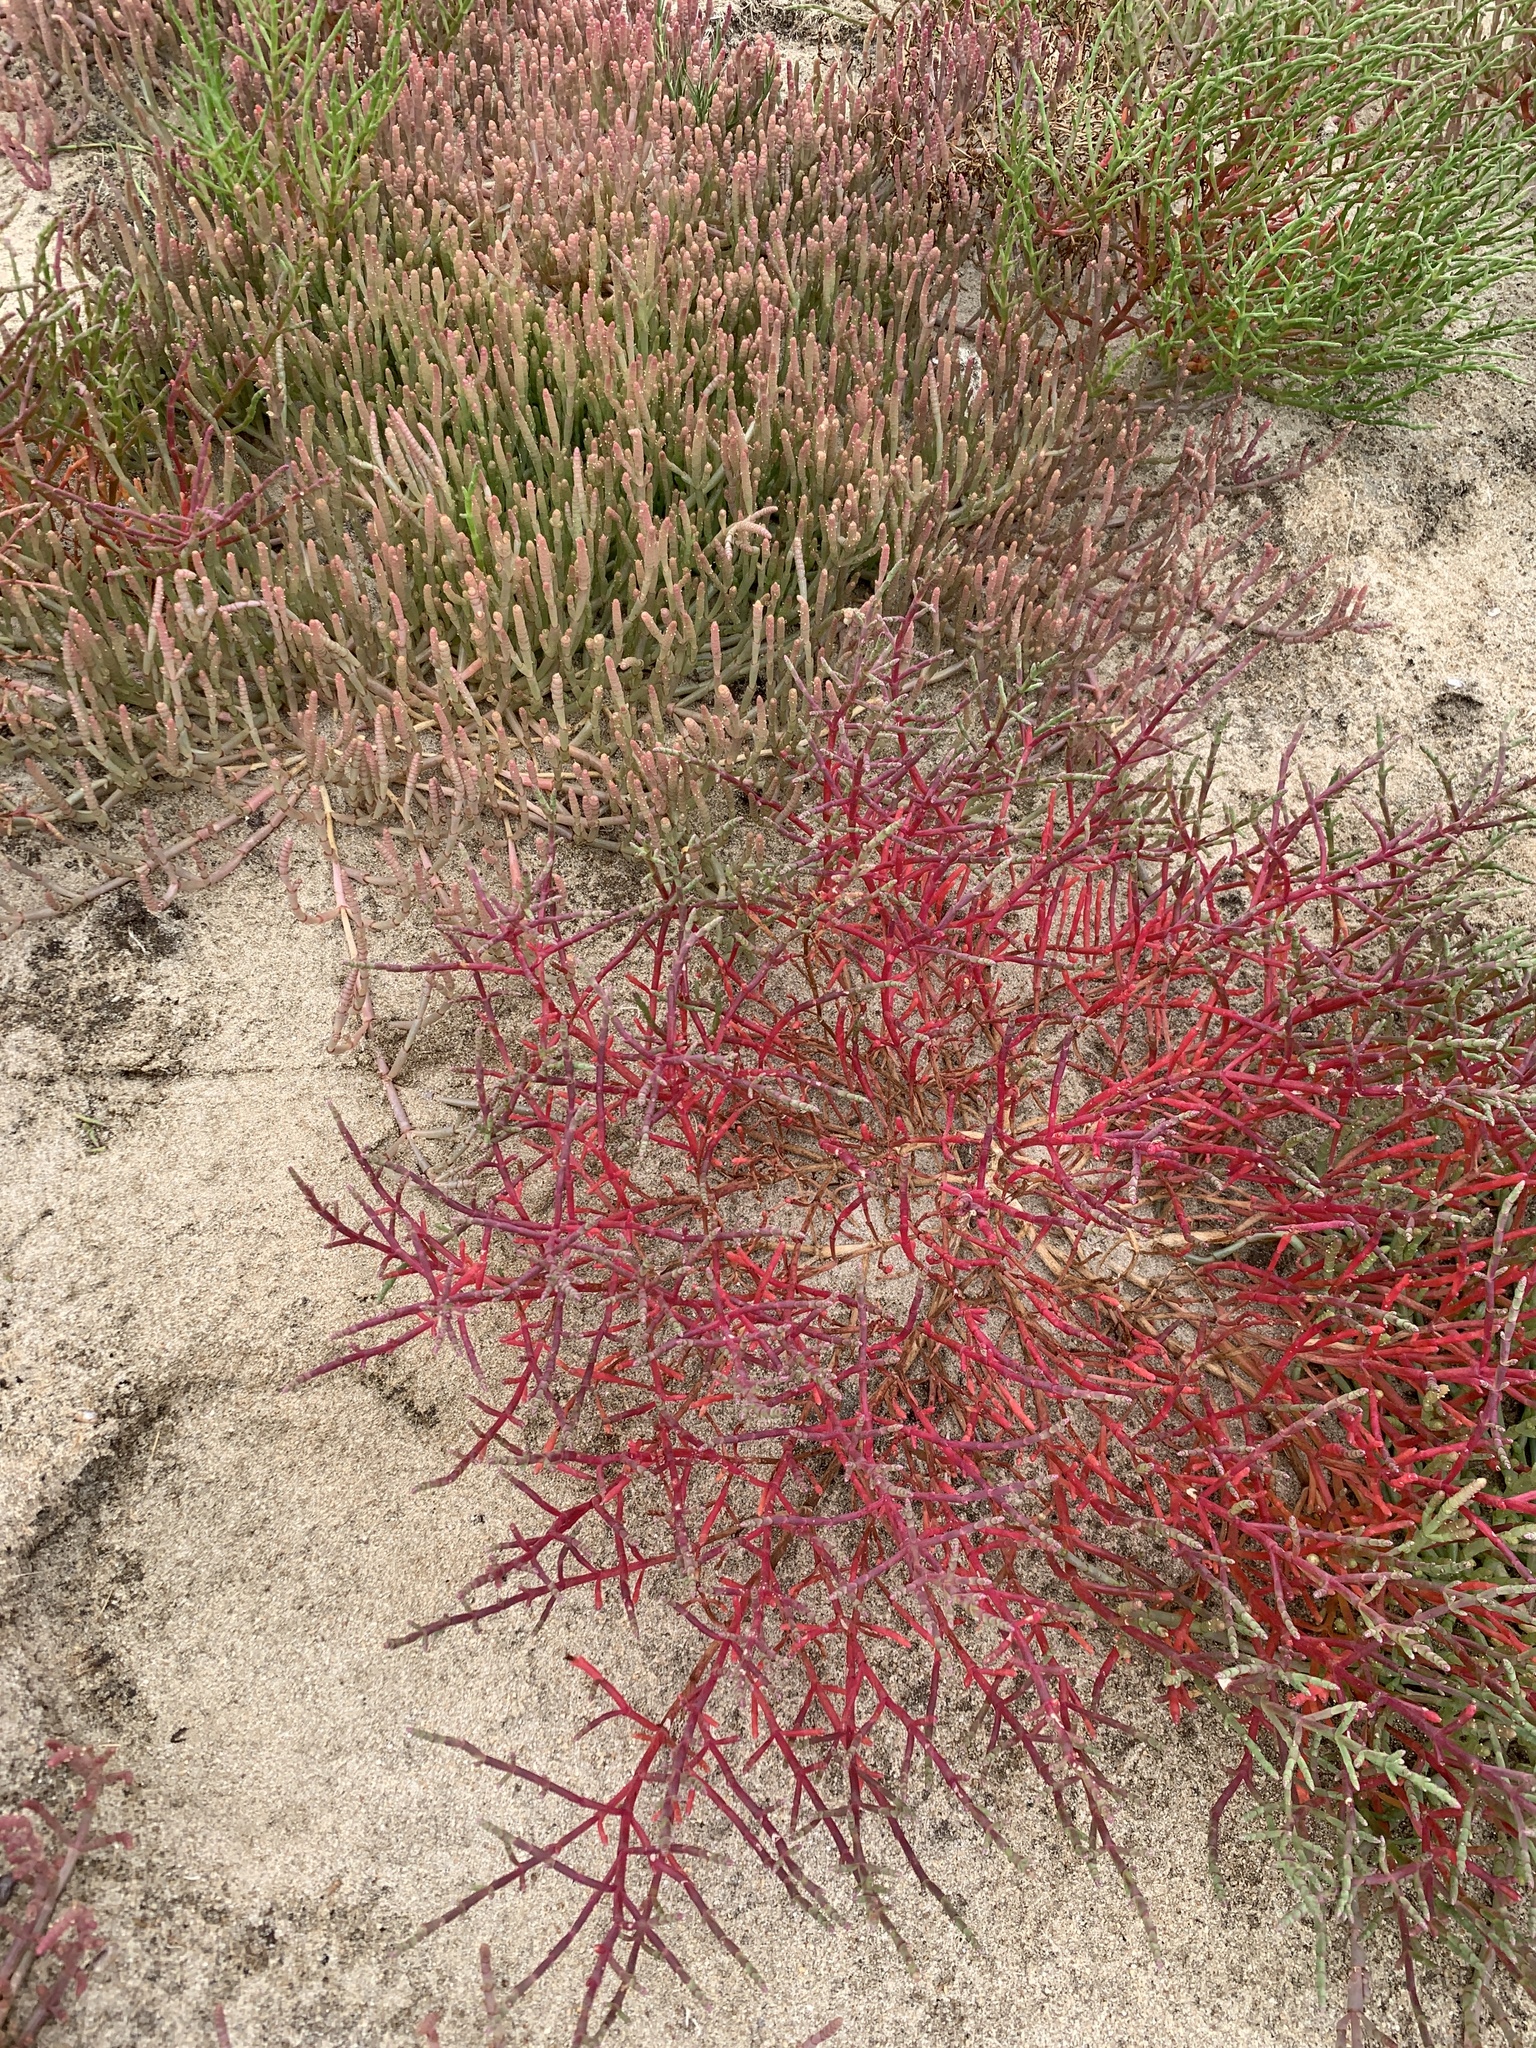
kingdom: Plantae
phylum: Tracheophyta
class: Magnoliopsida
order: Caryophyllales
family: Amaranthaceae
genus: Salicornia
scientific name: Salicornia meyeriana
